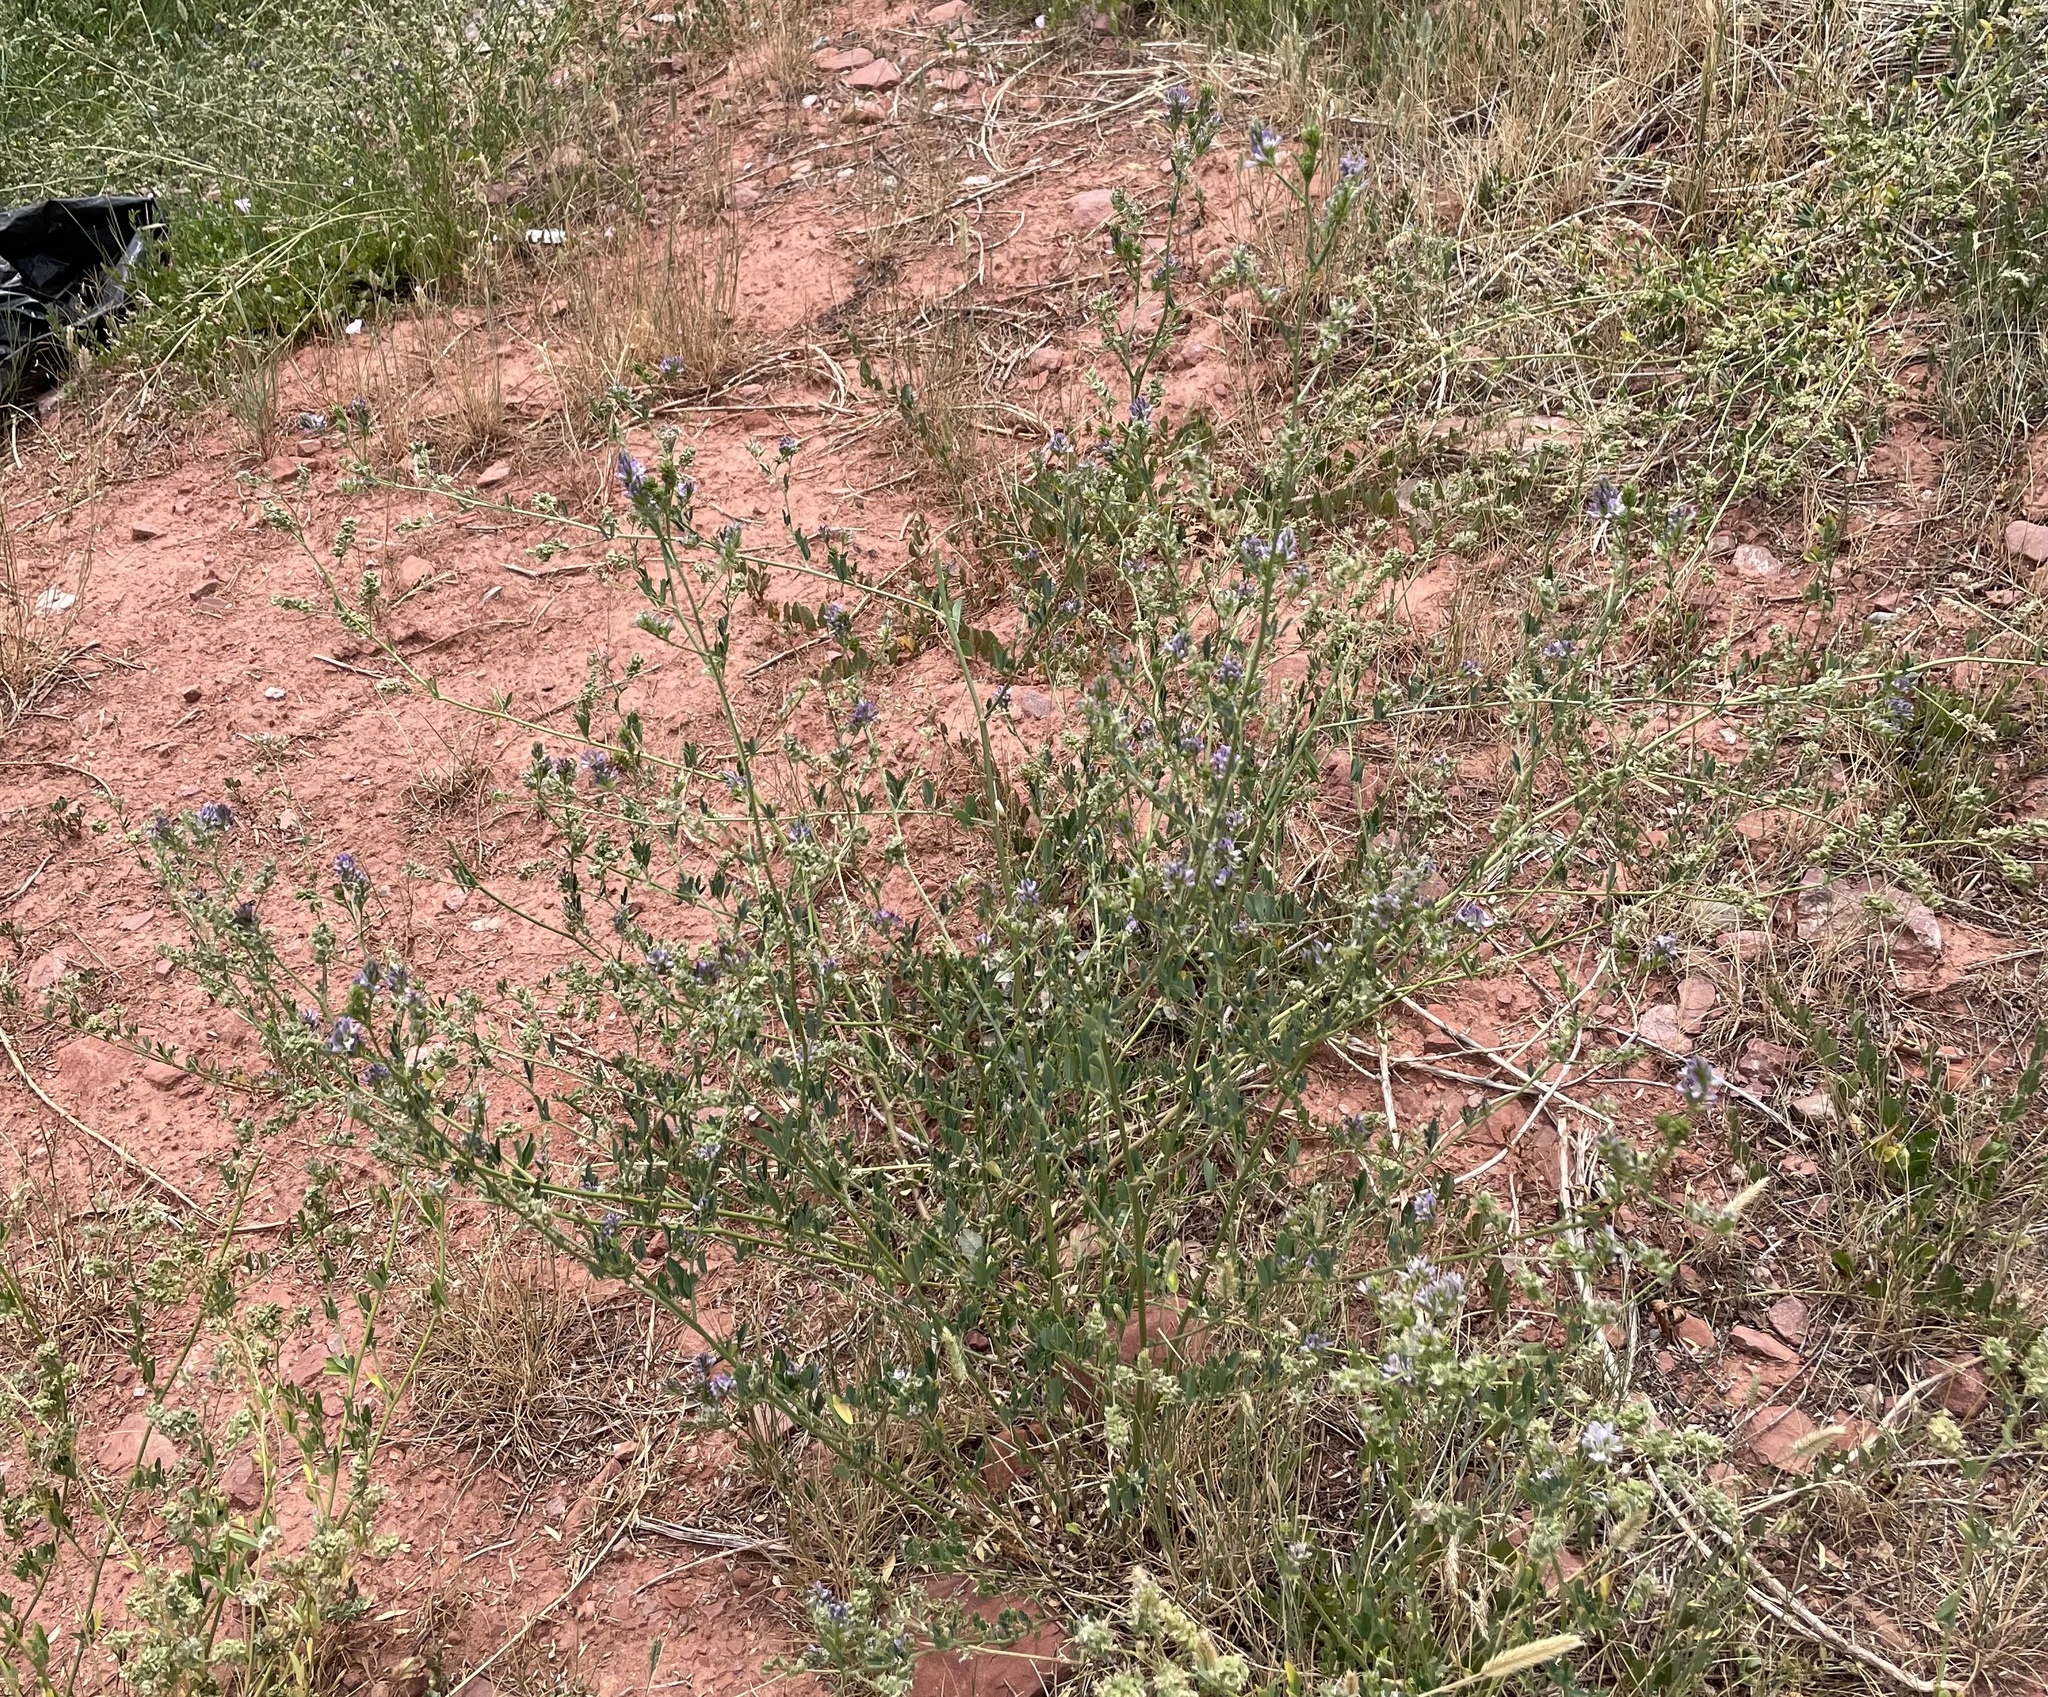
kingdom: Plantae
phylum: Tracheophyta
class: Magnoliopsida
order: Fabales
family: Fabaceae
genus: Medicago
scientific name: Medicago sativa
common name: Alfalfa
